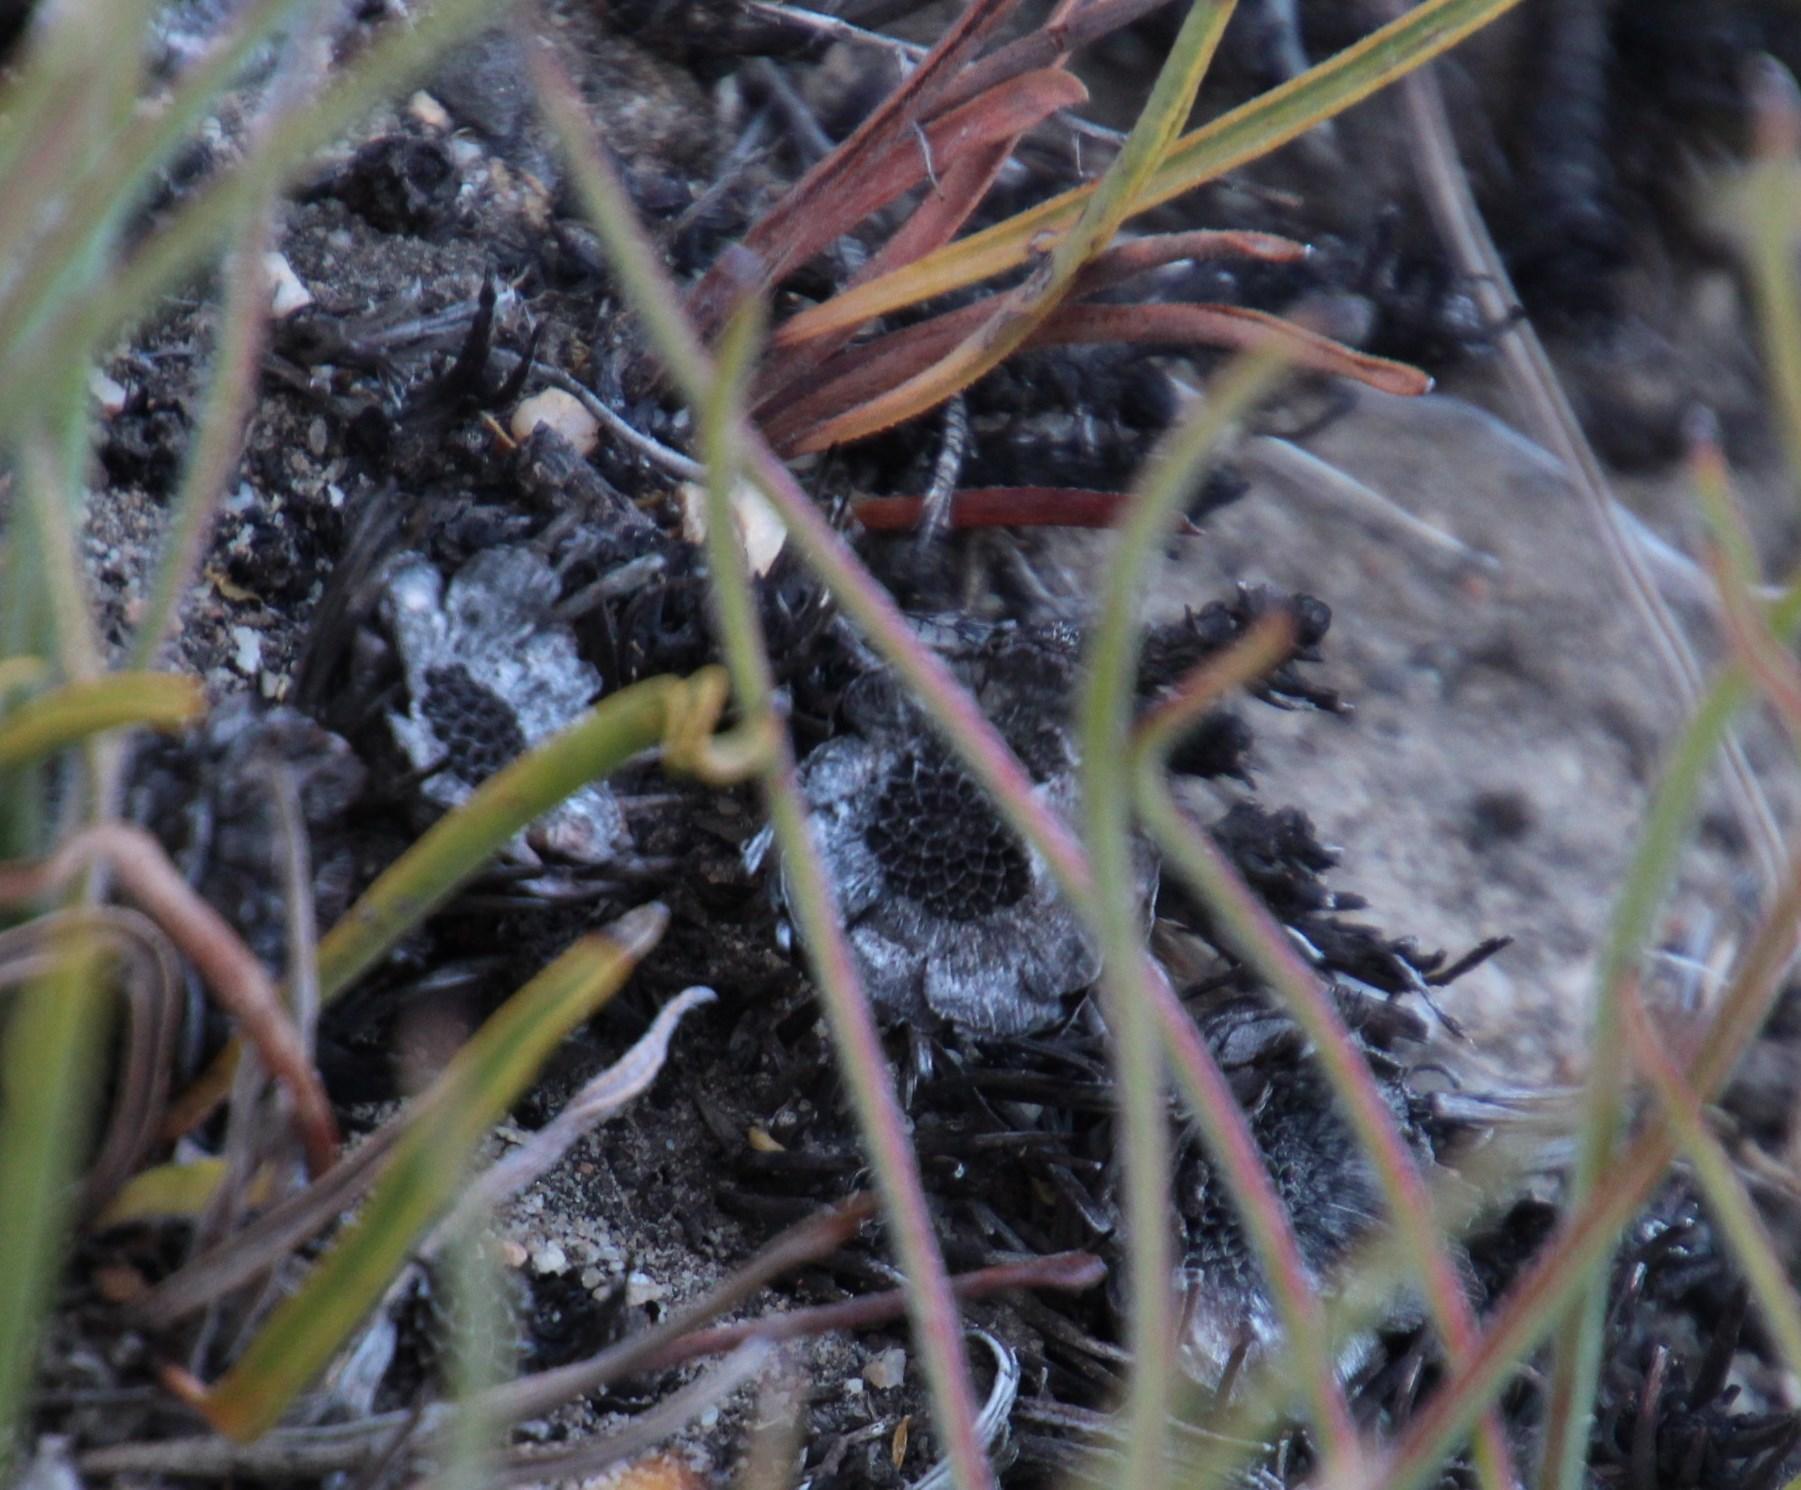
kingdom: Plantae
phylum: Tracheophyta
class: Magnoliopsida
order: Proteales
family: Proteaceae
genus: Protea
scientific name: Protea piscina
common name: Visgat sugarbush
